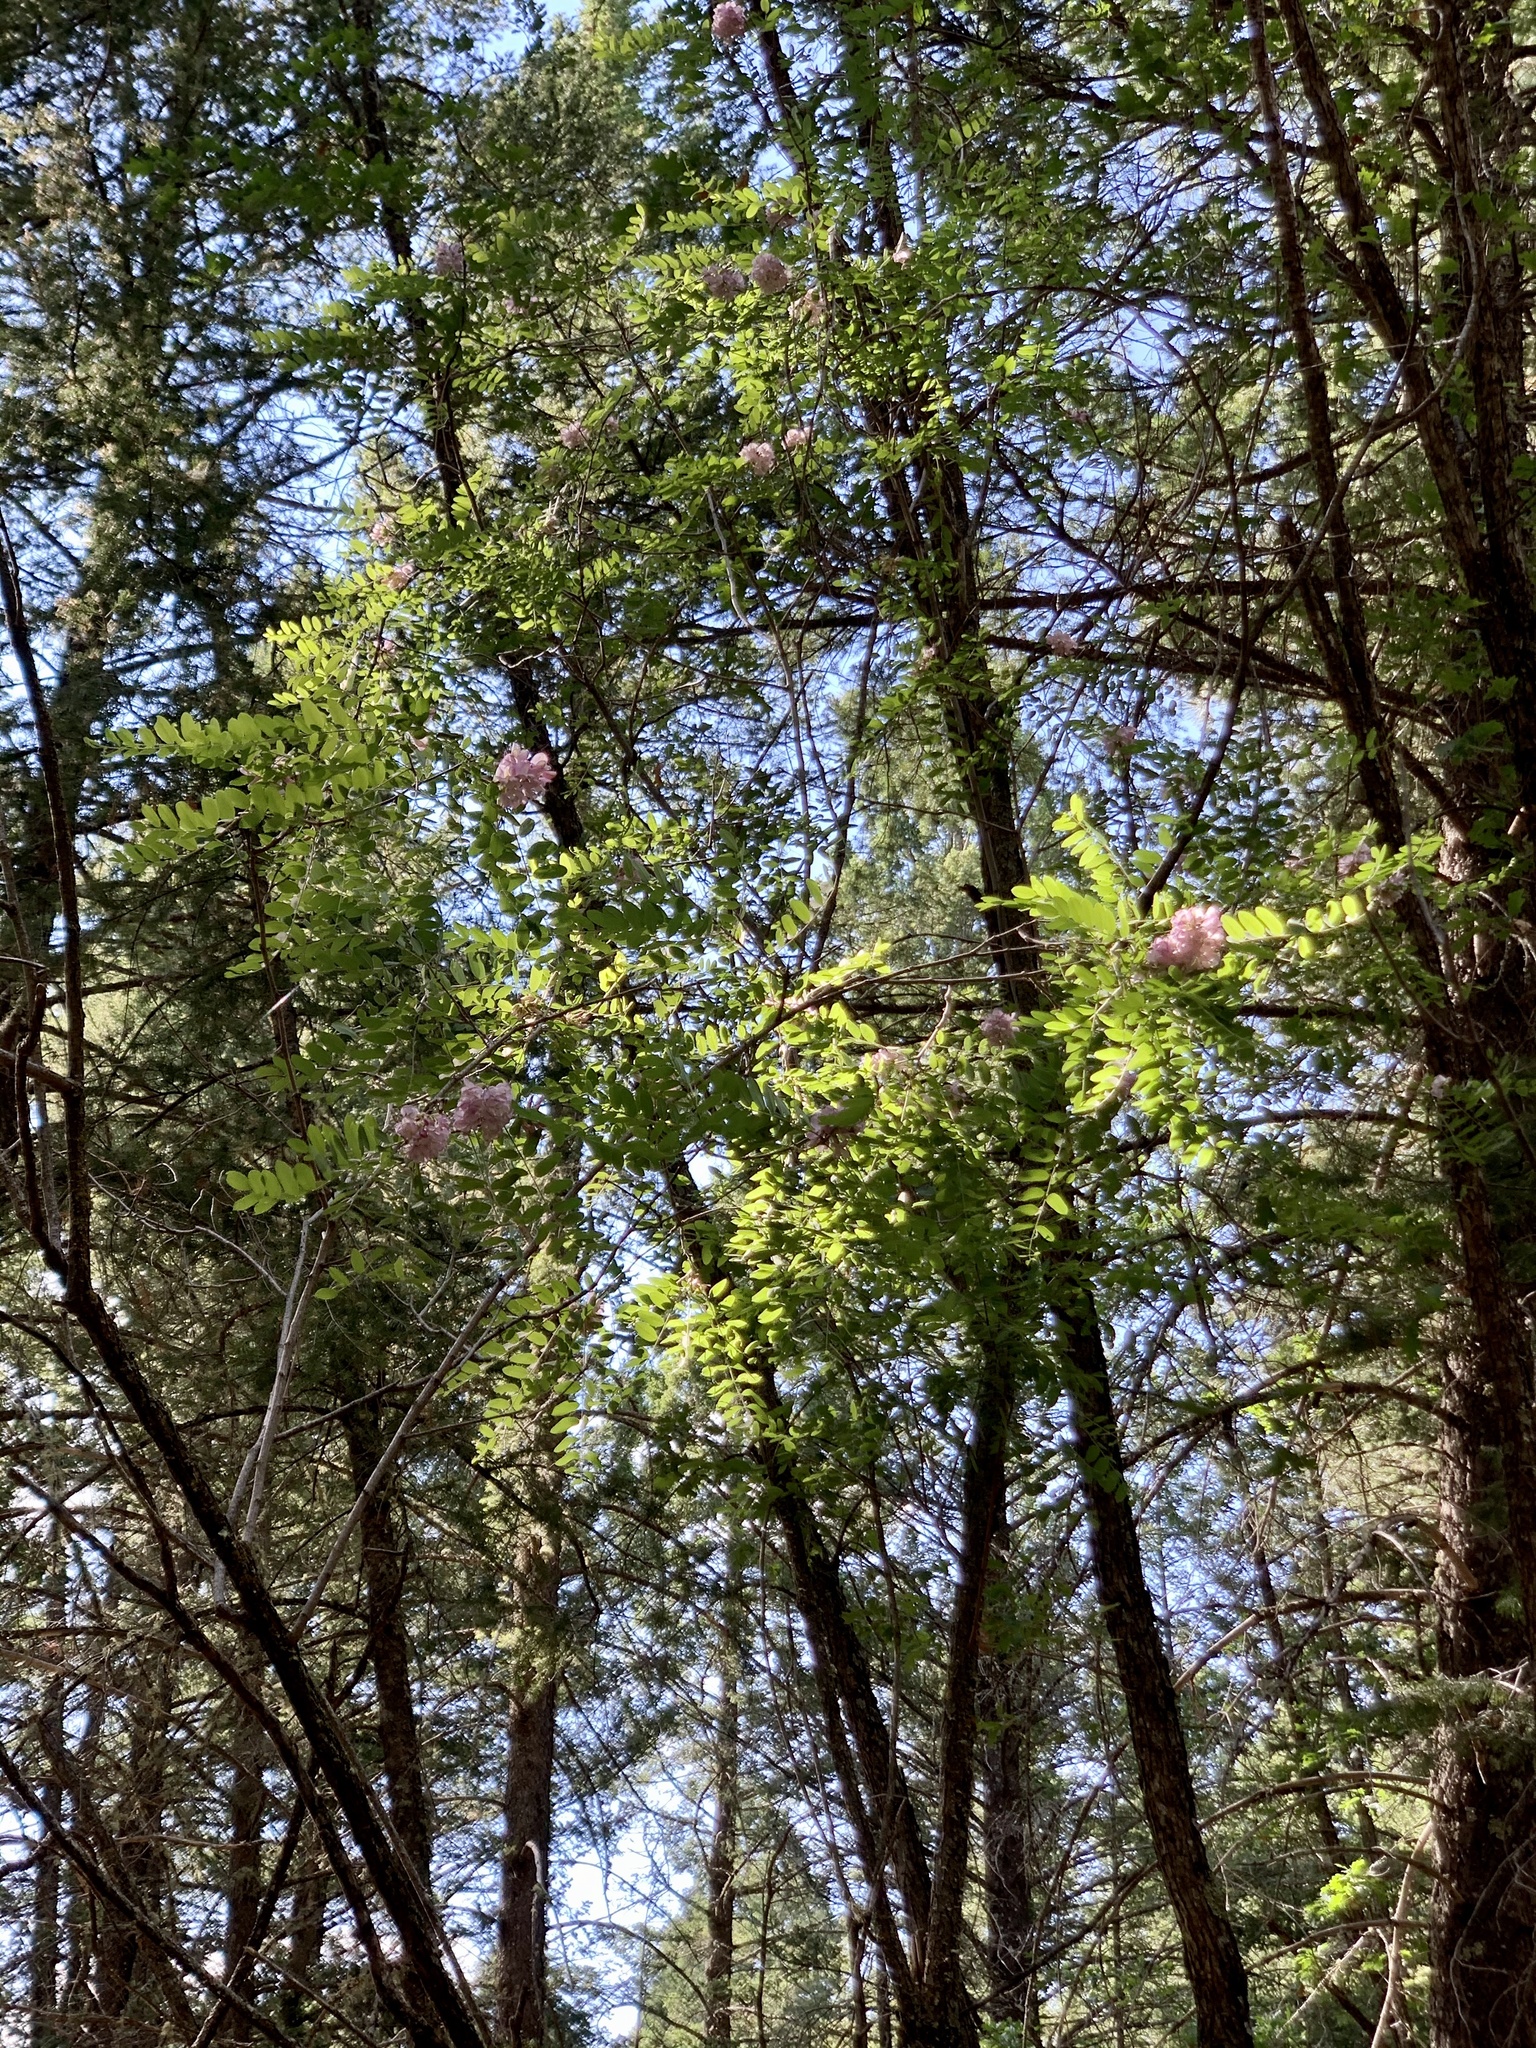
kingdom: Plantae
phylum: Tracheophyta
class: Magnoliopsida
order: Fabales
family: Fabaceae
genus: Robinia
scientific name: Robinia neomexicana
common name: New mexico locust
